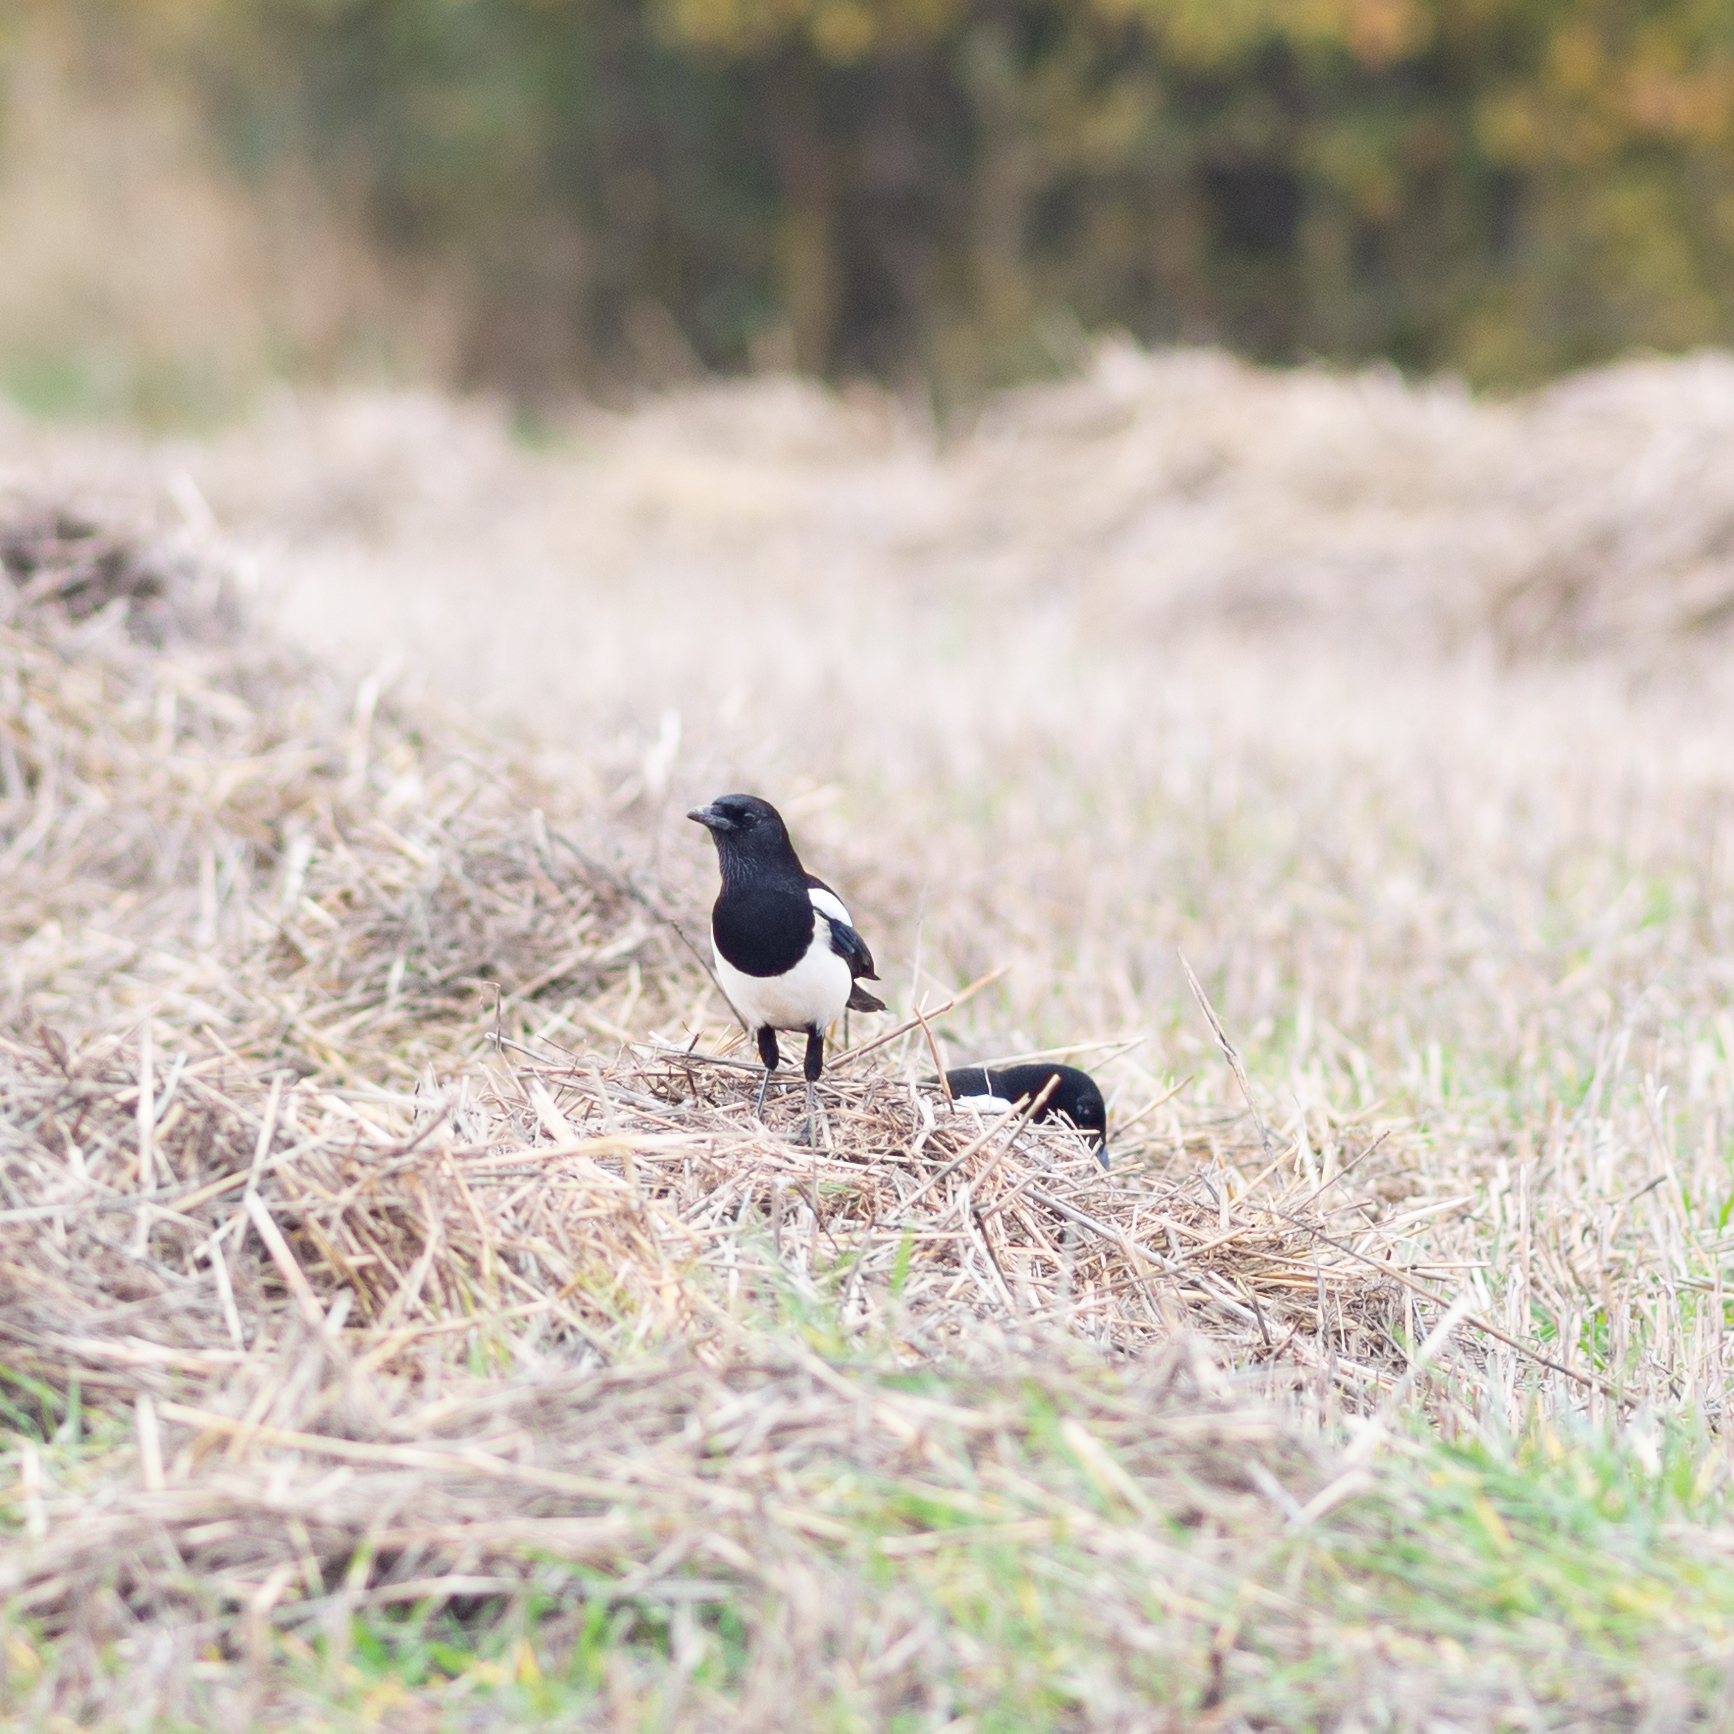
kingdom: Animalia
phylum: Chordata
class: Aves
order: Passeriformes
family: Corvidae
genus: Pica
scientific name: Pica pica
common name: Eurasian magpie
